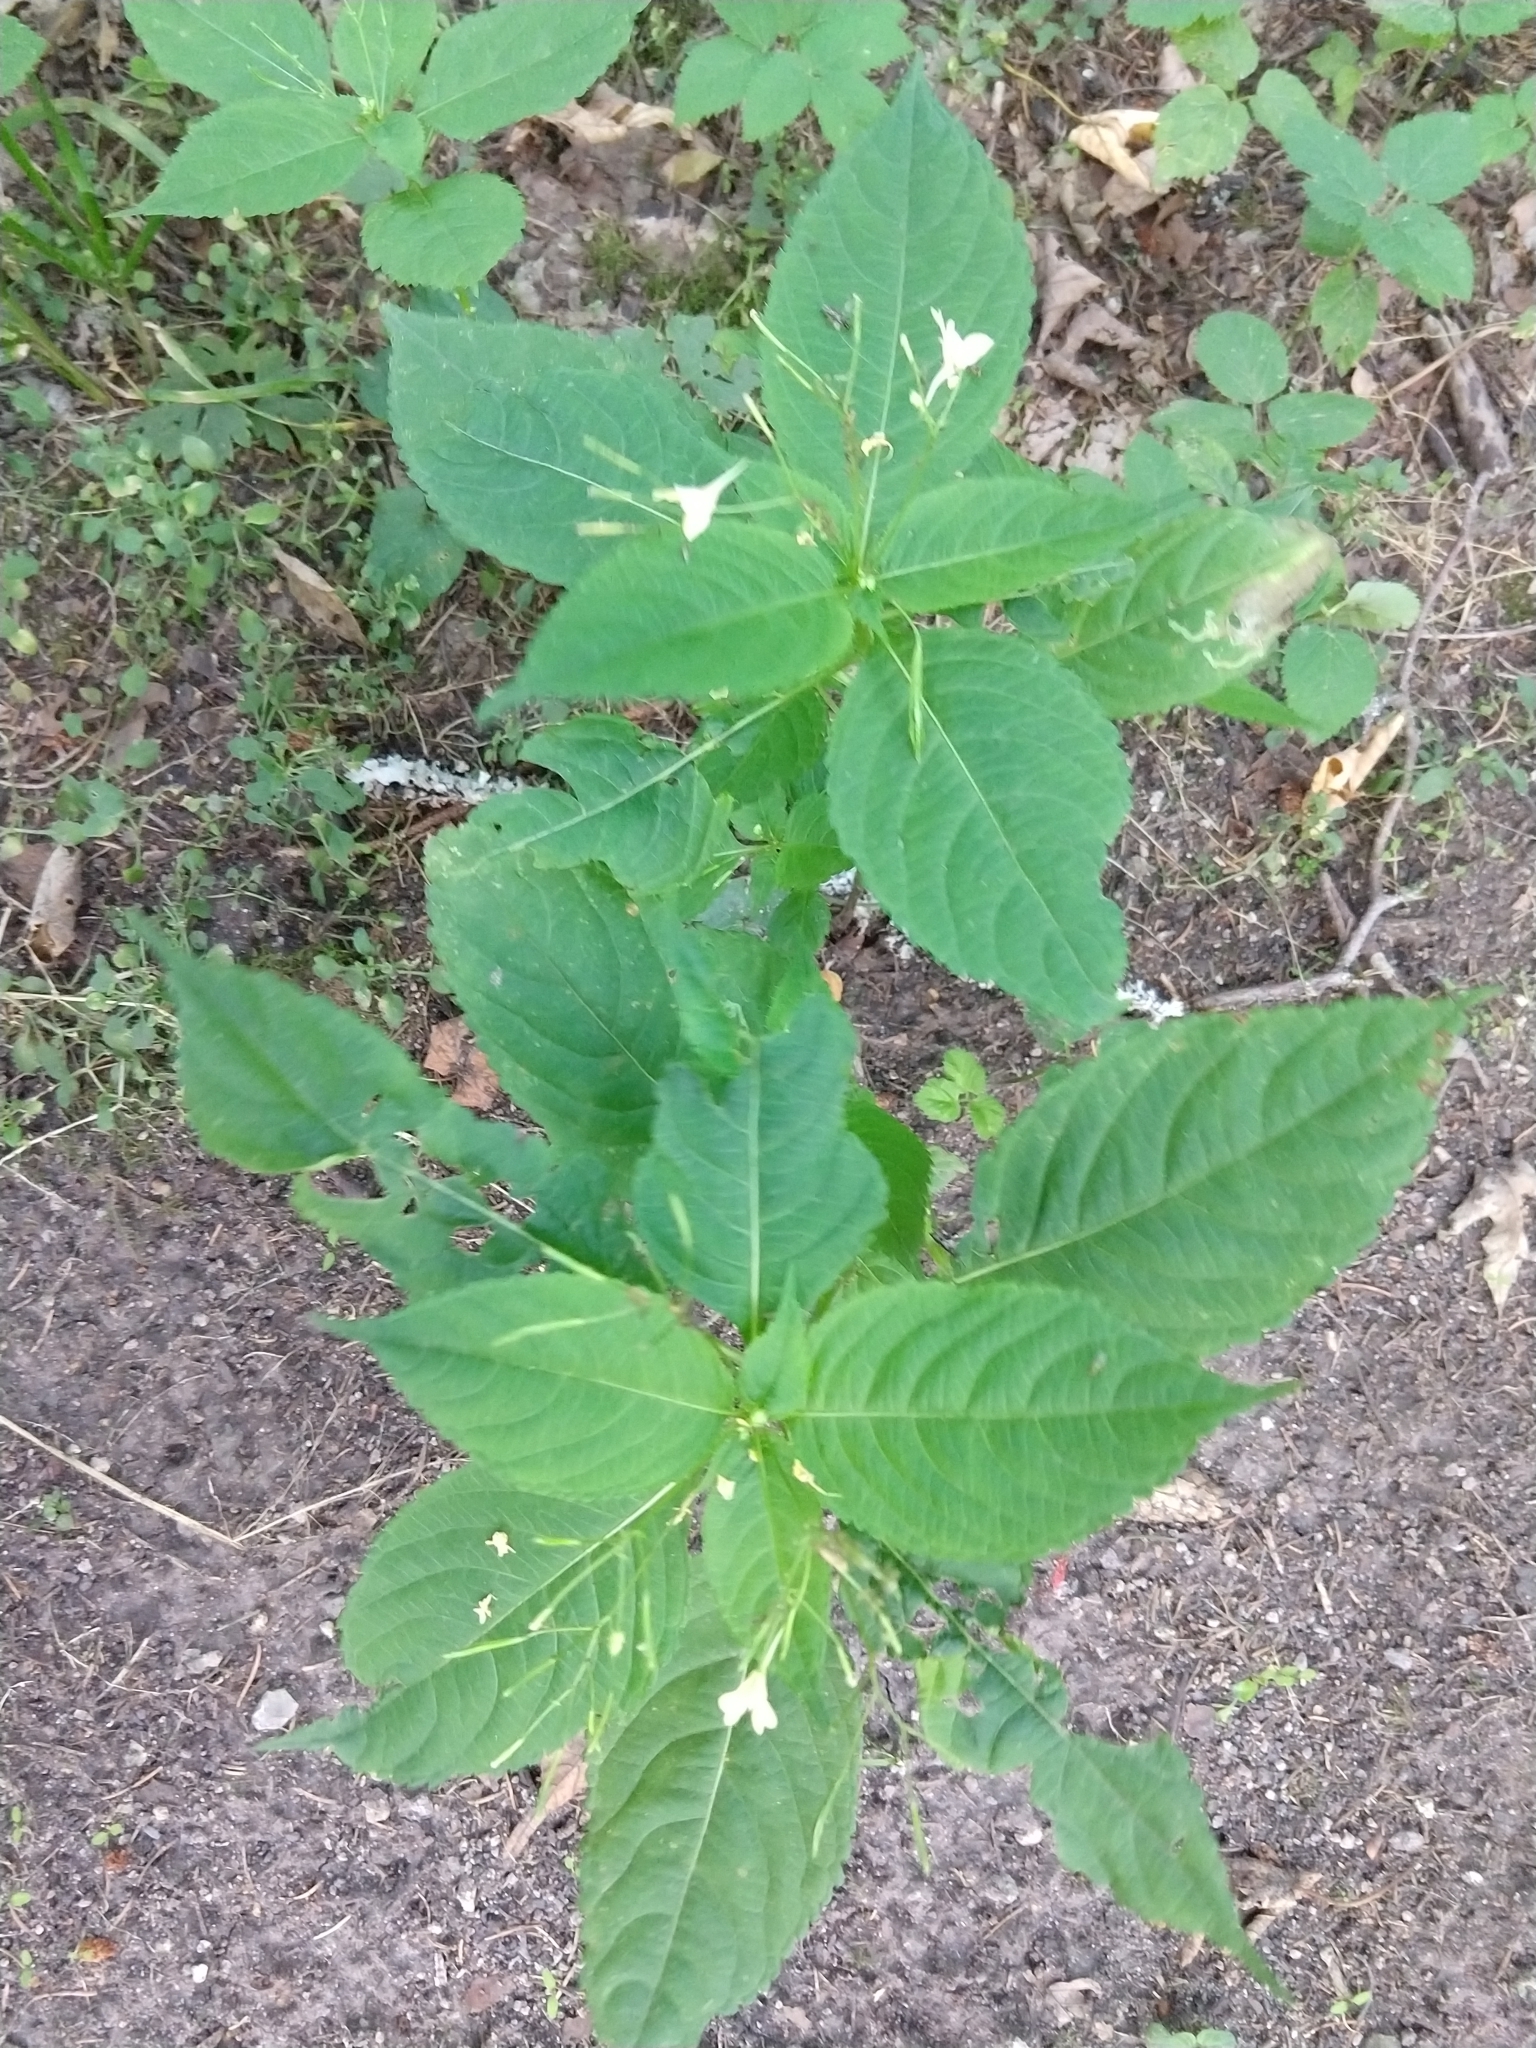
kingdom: Plantae
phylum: Tracheophyta
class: Magnoliopsida
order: Ericales
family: Balsaminaceae
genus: Impatiens
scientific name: Impatiens parviflora
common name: Small balsam
